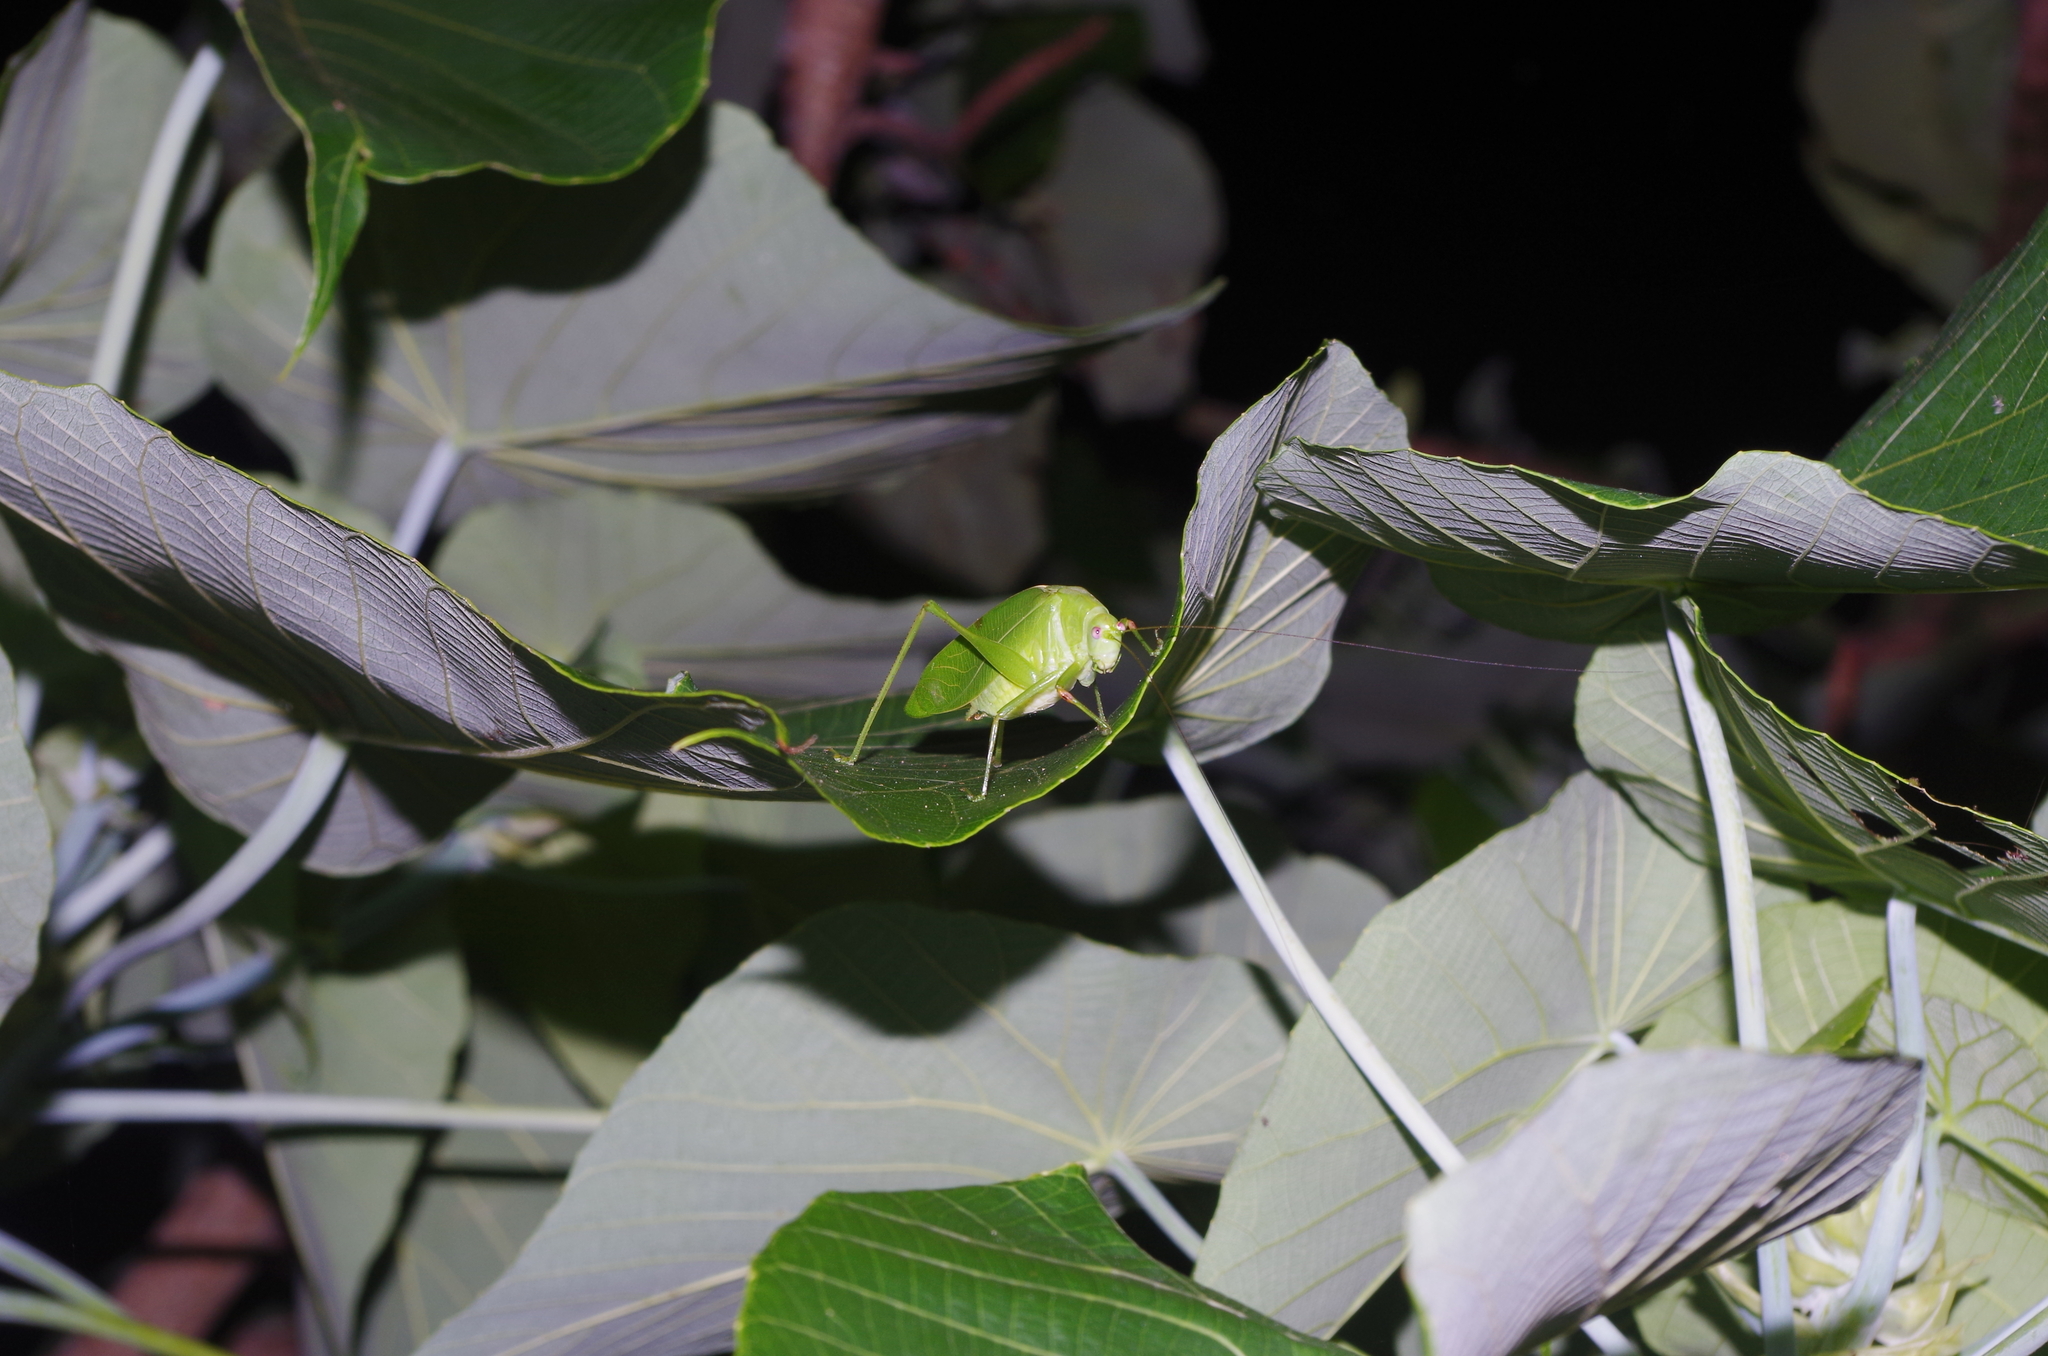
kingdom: Animalia
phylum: Arthropoda
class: Insecta
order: Orthoptera
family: Tettigoniidae
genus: Phaulula
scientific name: Phaulula daitoensis
